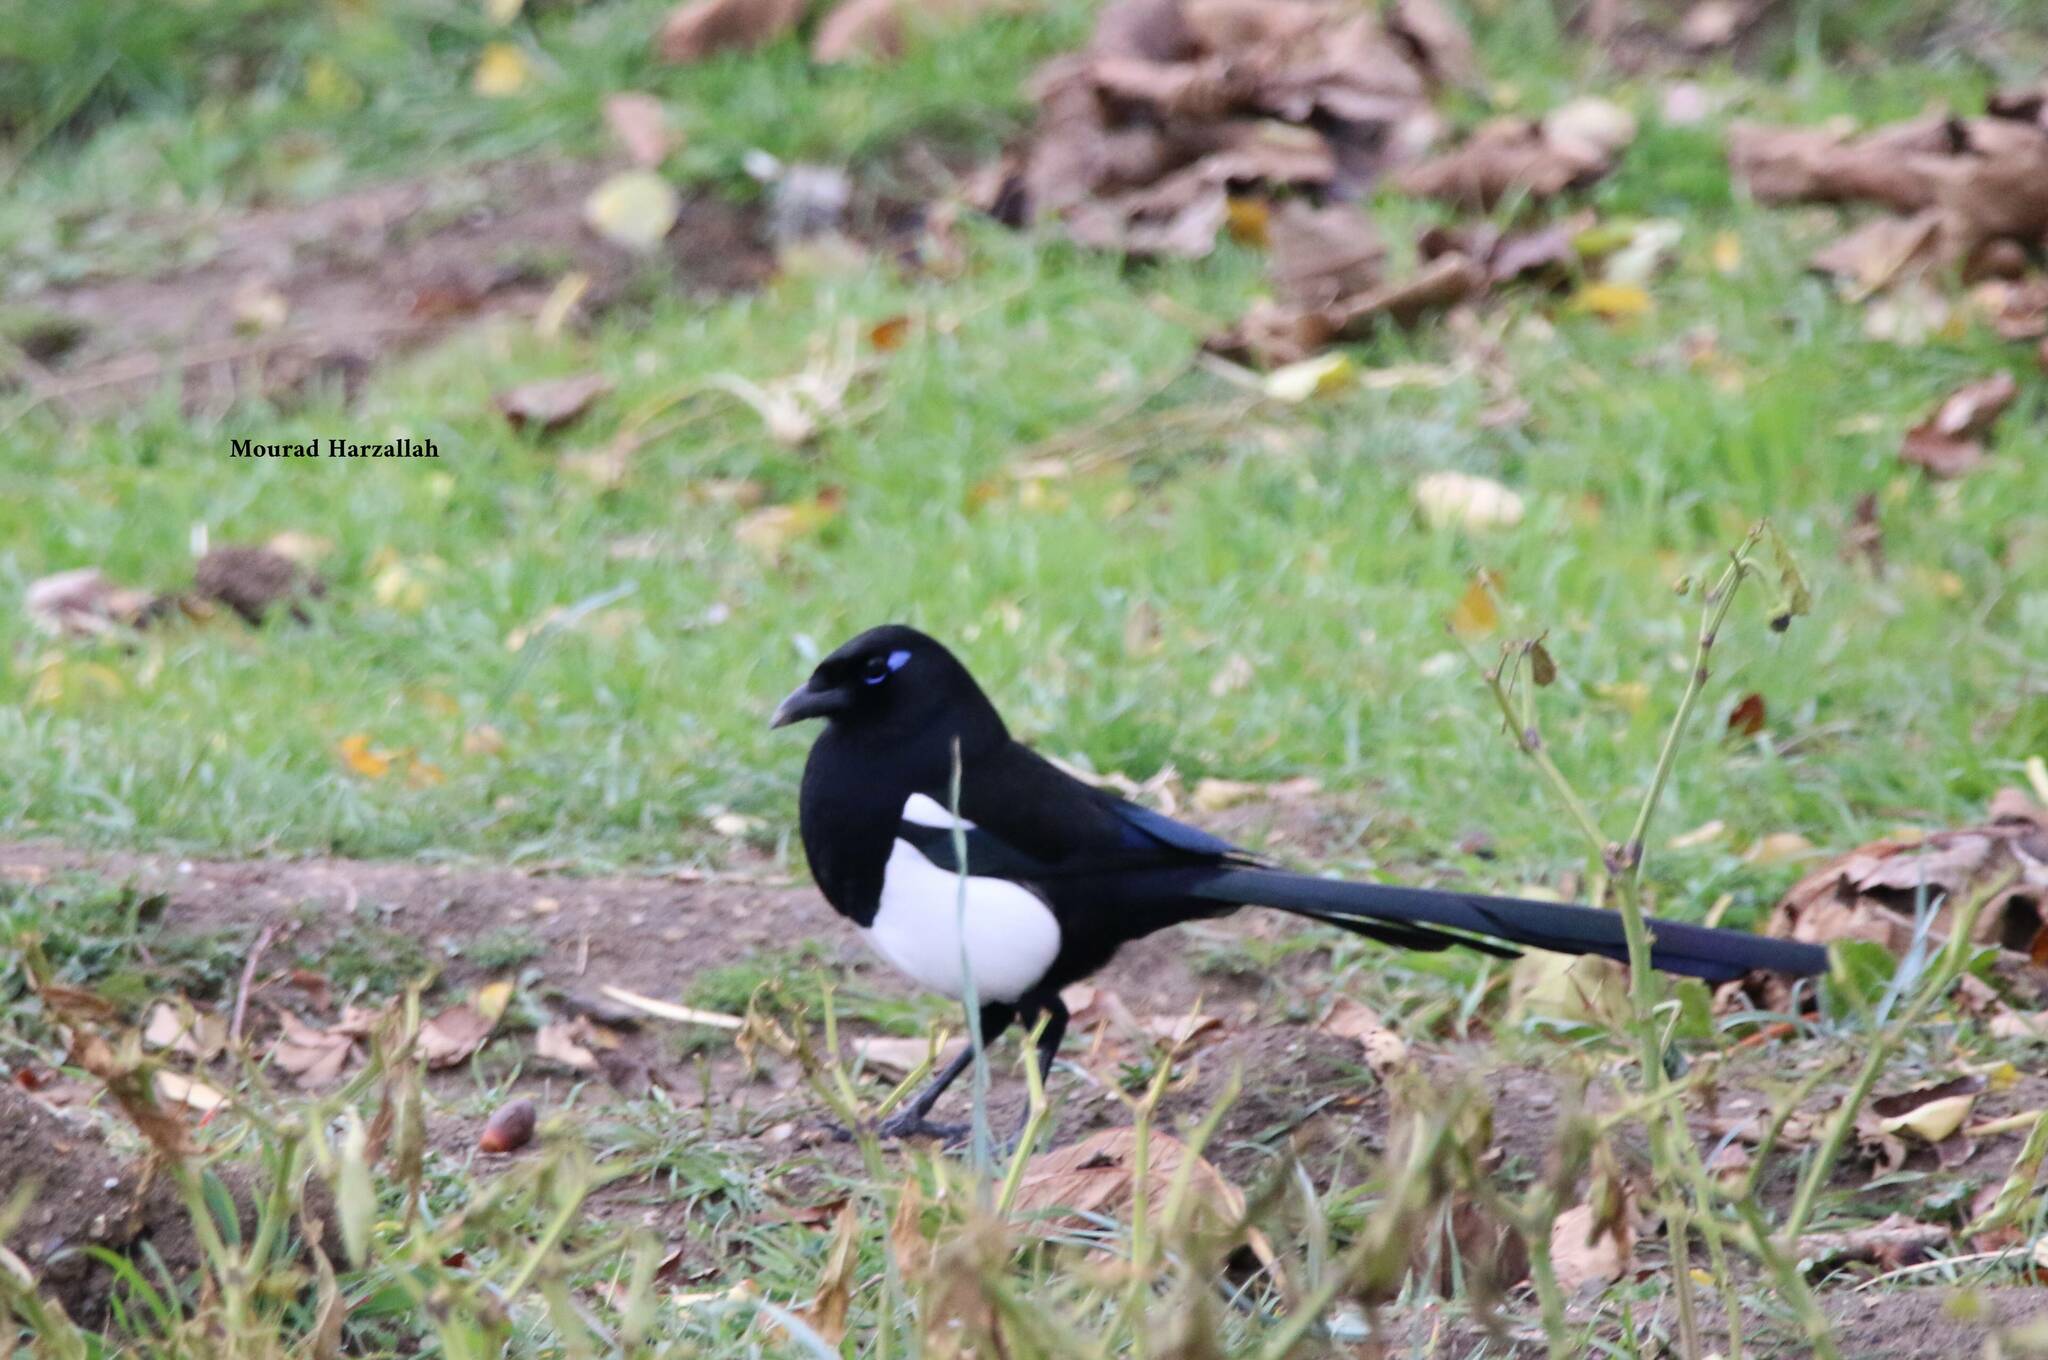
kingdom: Animalia
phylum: Chordata
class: Aves
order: Passeriformes
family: Corvidae
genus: Pica
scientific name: Pica mauritanica
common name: Maghreb magpie
